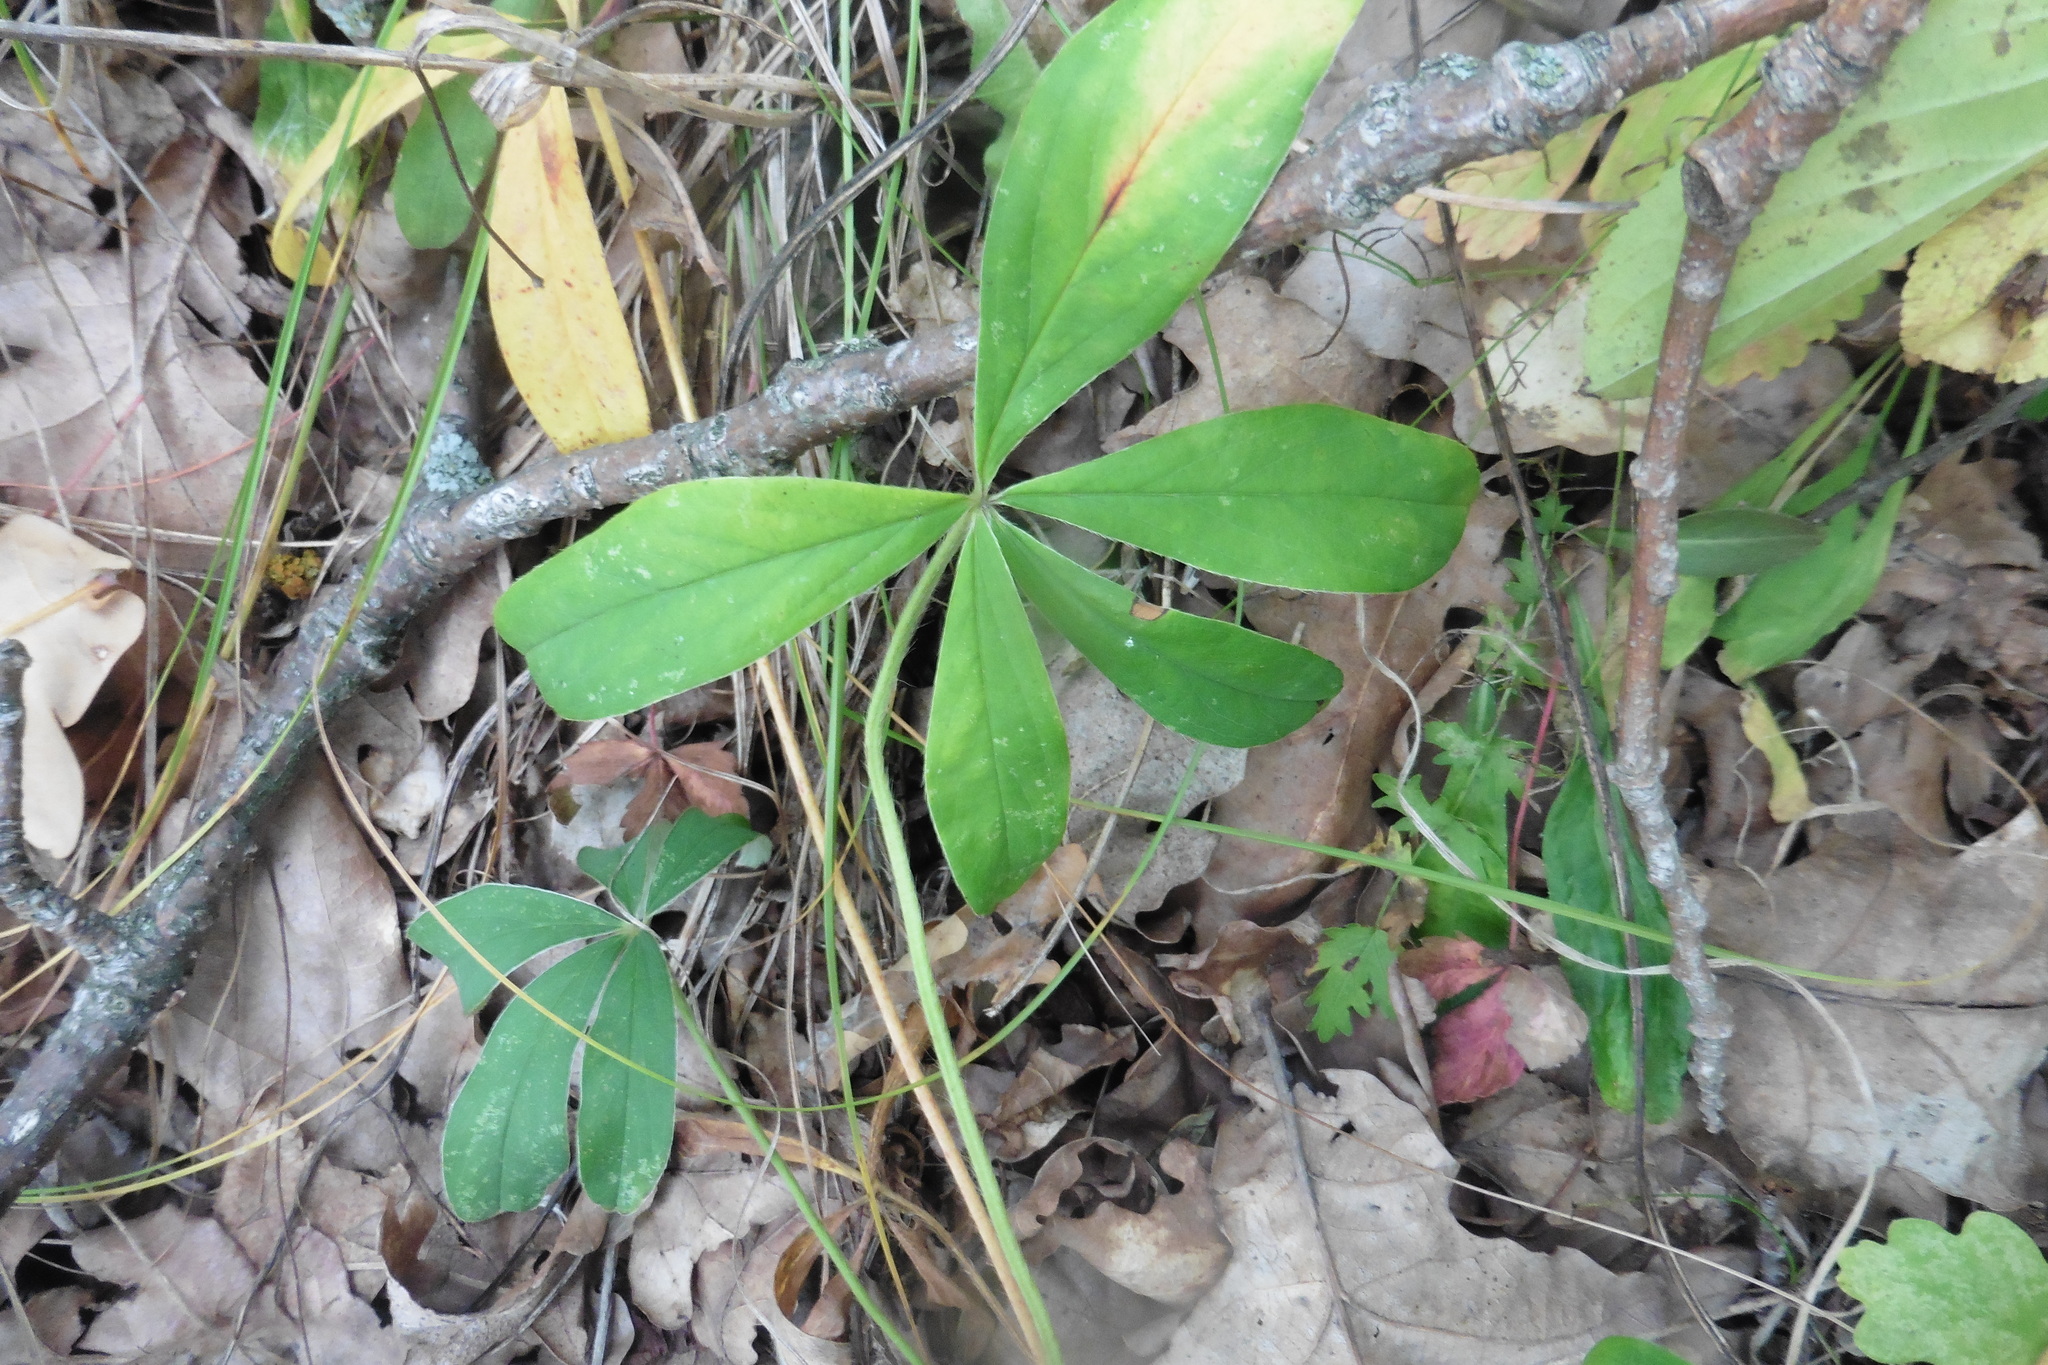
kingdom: Plantae
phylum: Tracheophyta
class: Magnoliopsida
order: Rosales
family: Rosaceae
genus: Potentilla
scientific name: Potentilla alba
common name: White cinquefoil
